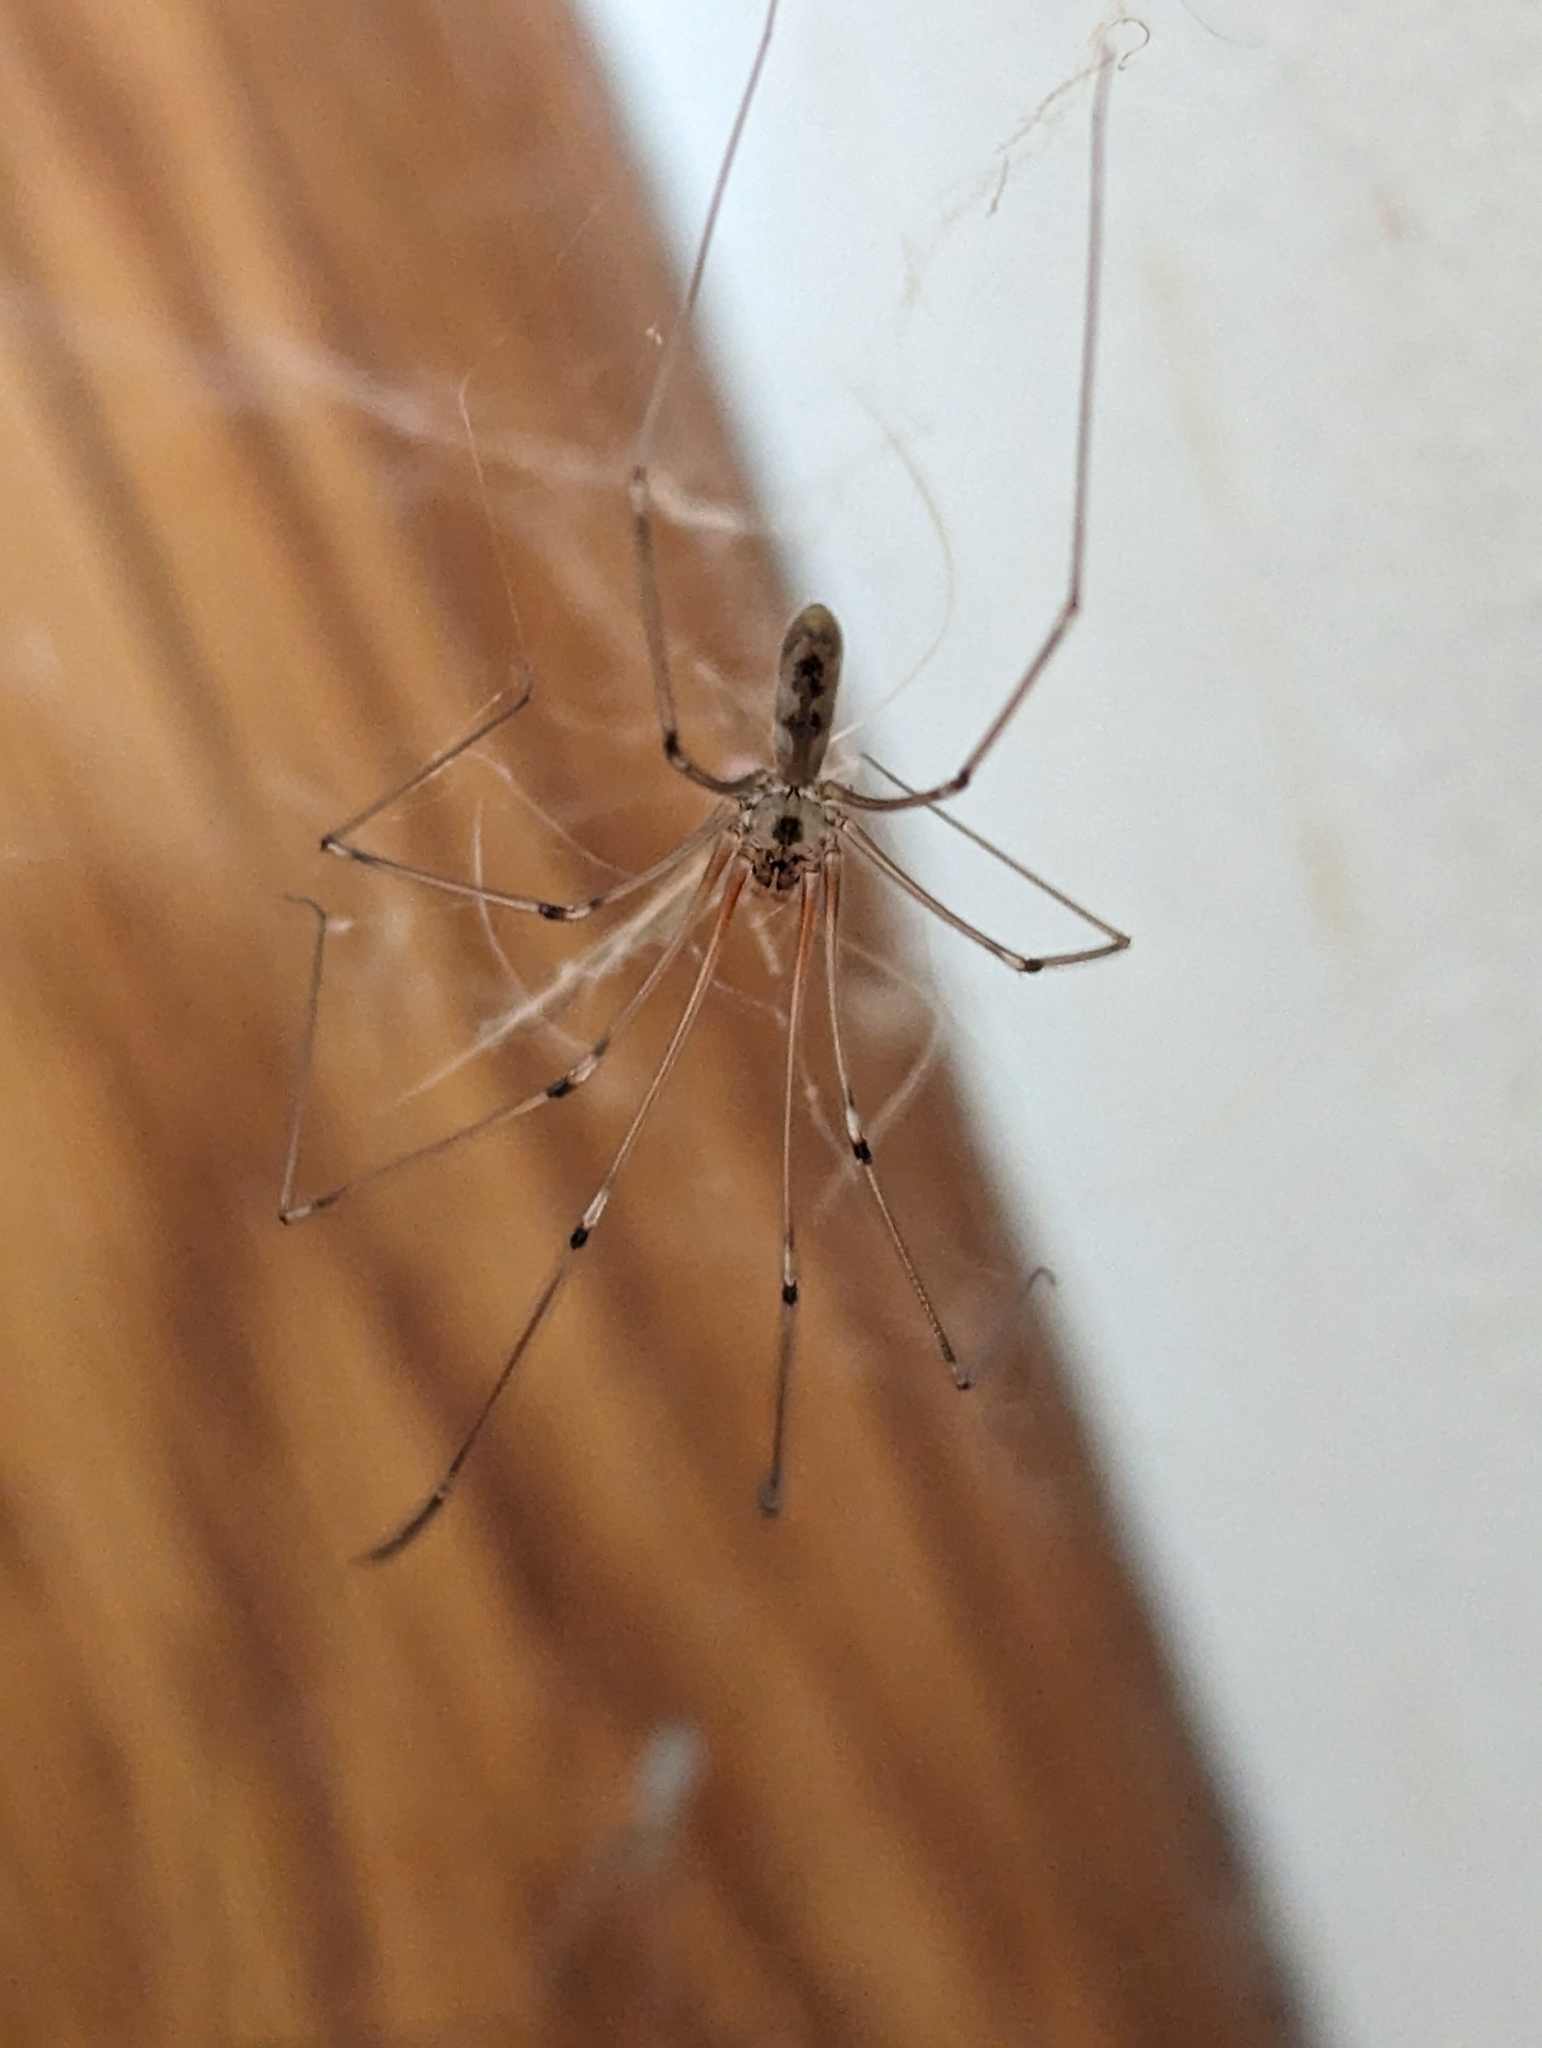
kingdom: Animalia
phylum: Arthropoda
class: Arachnida
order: Araneae
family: Pholcidae
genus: Pholcus
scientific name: Pholcus phalangioides
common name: Longbodied cellar spider
